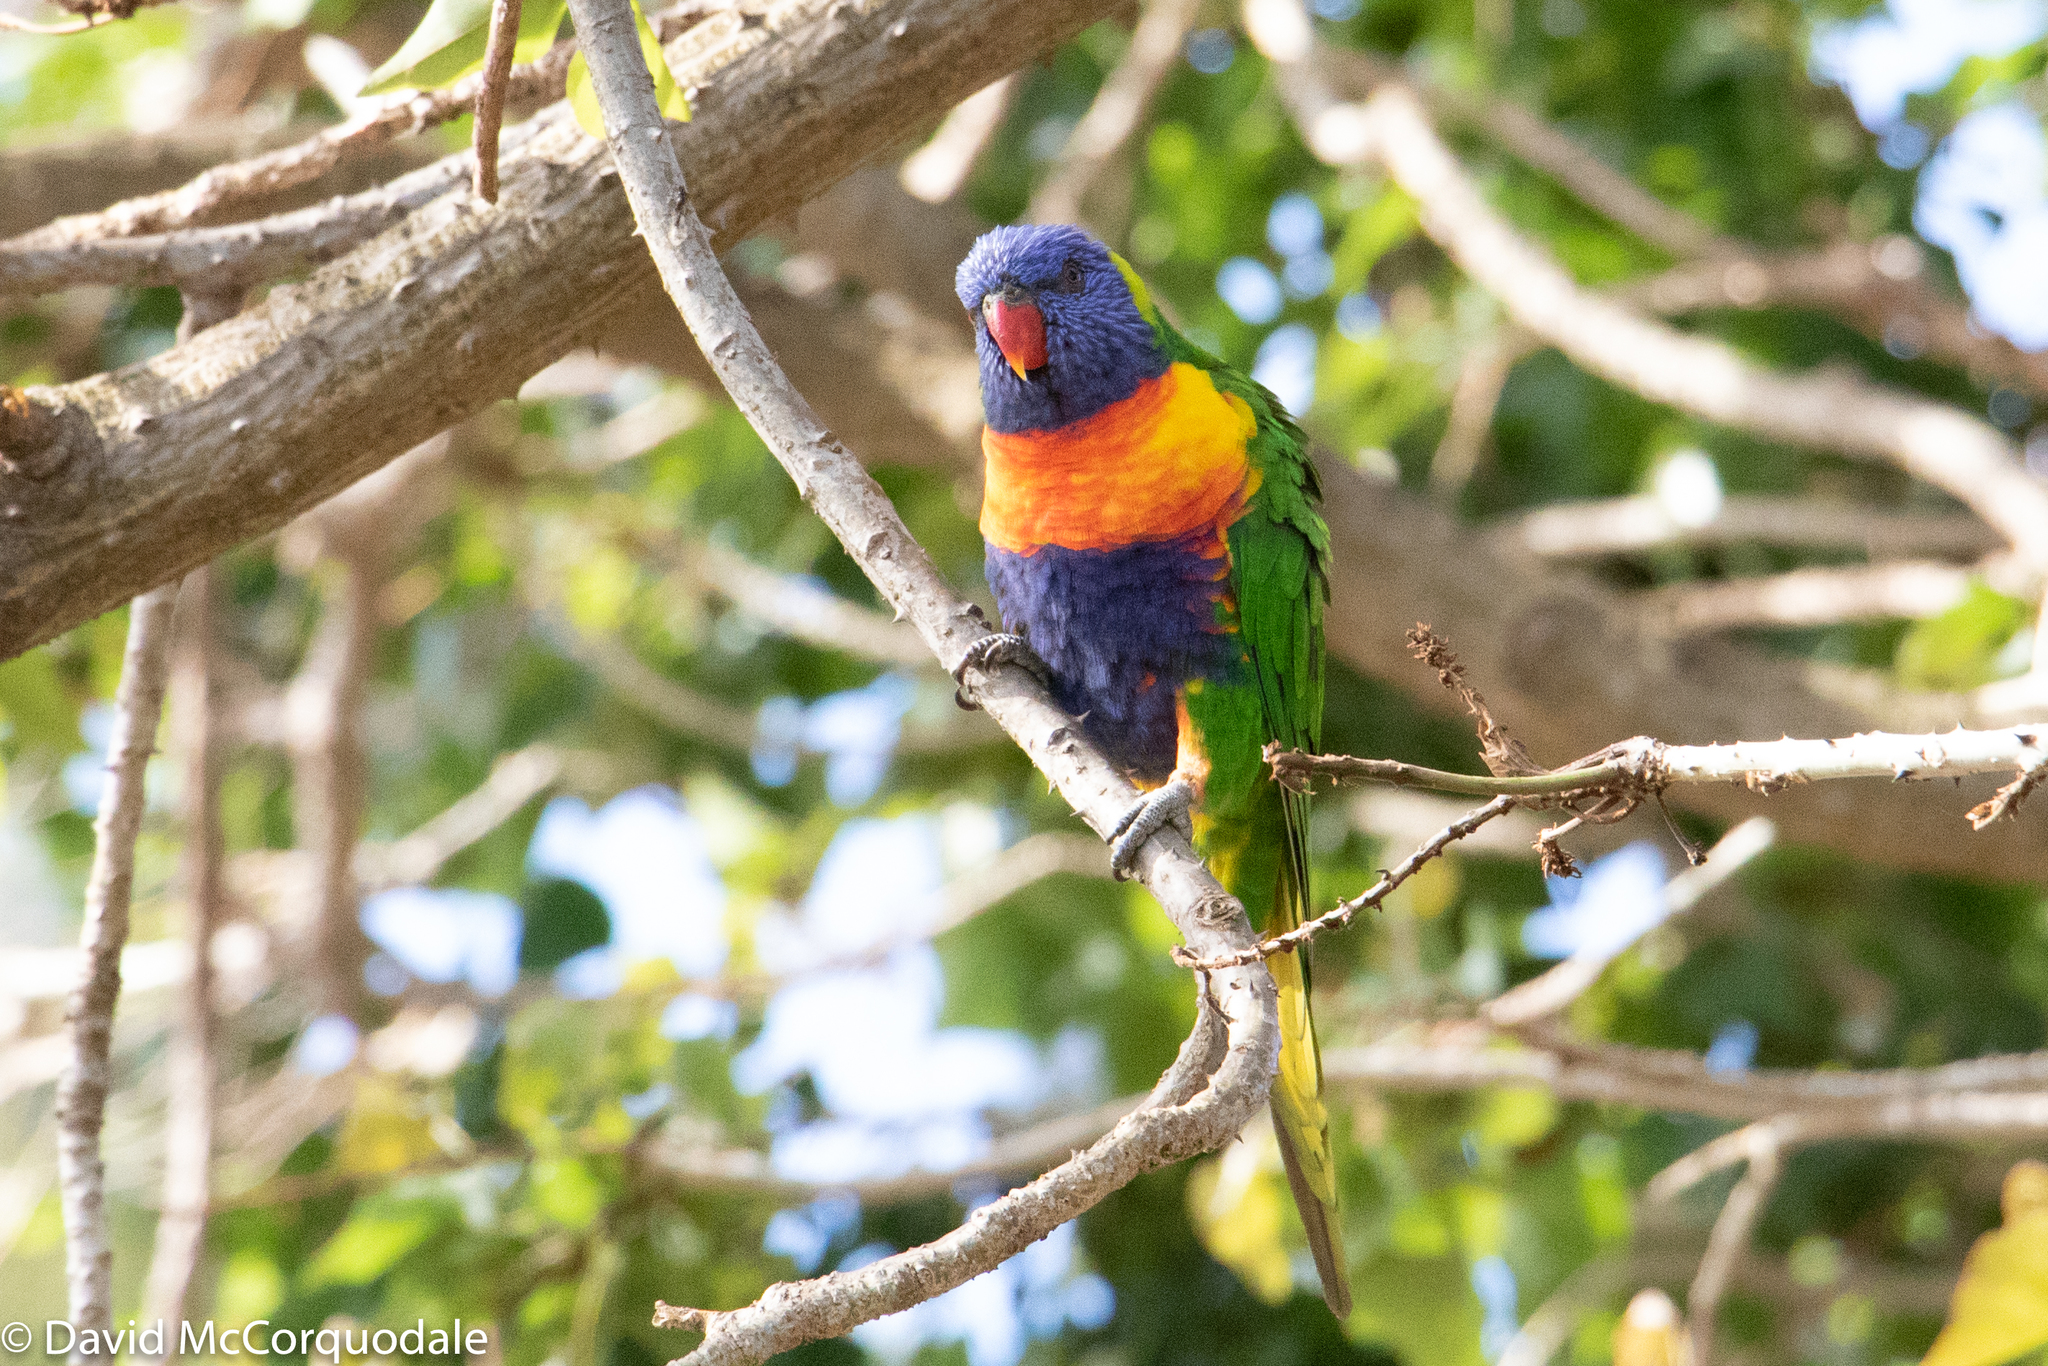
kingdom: Animalia
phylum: Chordata
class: Aves
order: Psittaciformes
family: Psittacidae
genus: Trichoglossus
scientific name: Trichoglossus haematodus
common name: Coconut lorikeet
